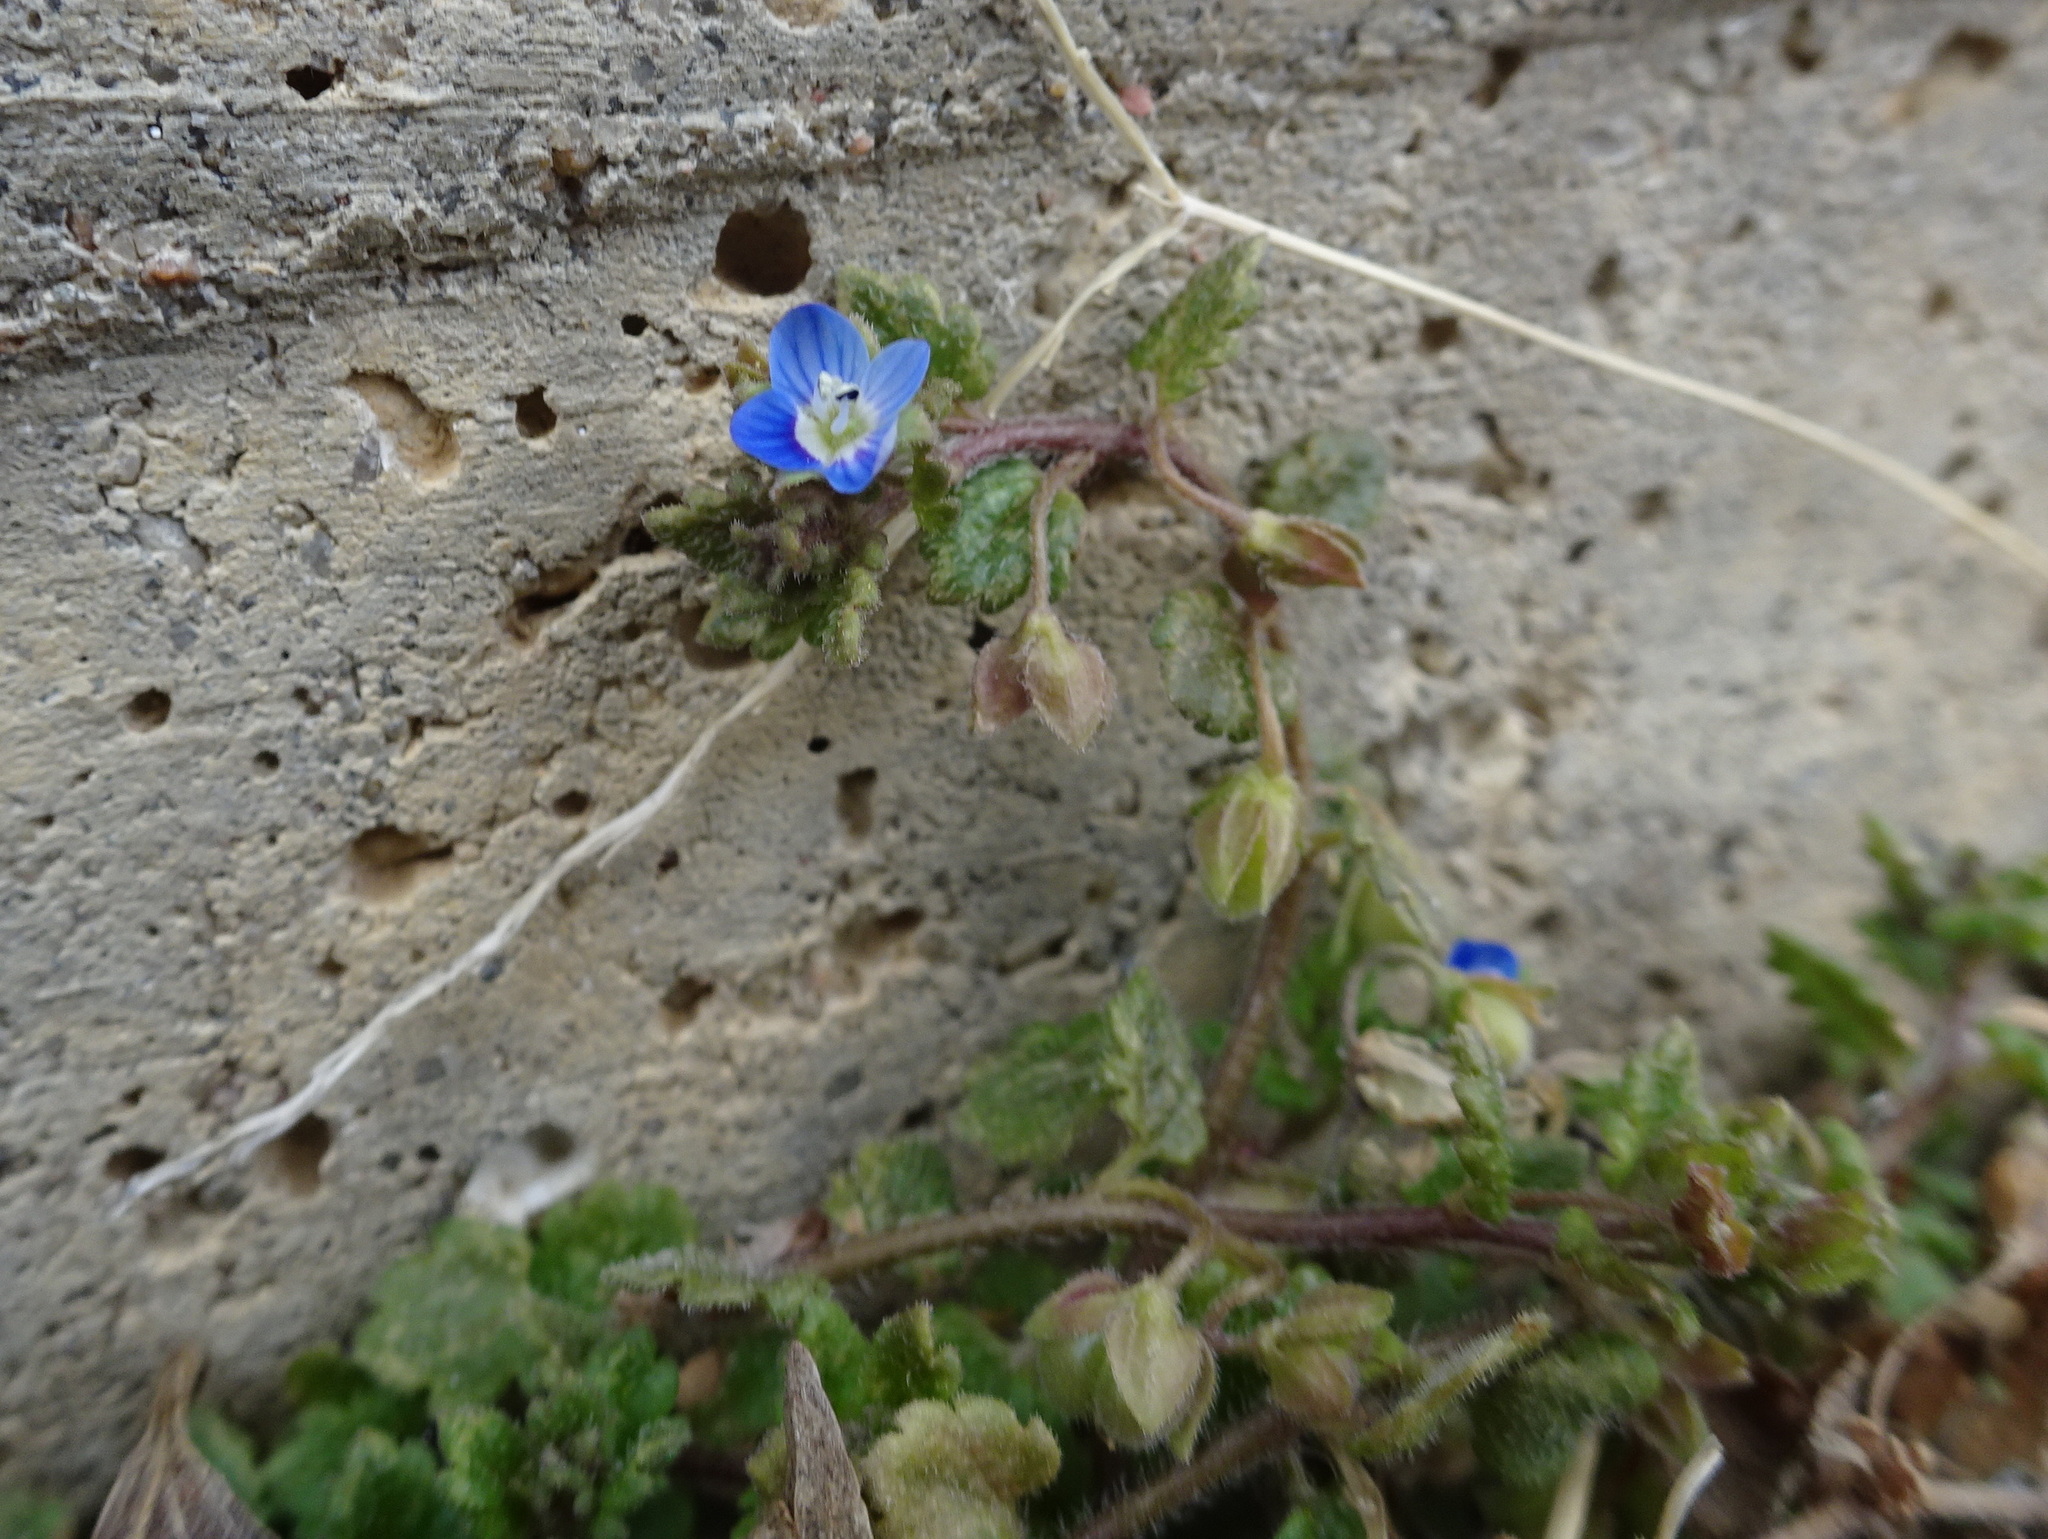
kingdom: Plantae
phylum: Tracheophyta
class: Magnoliopsida
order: Lamiales
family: Plantaginaceae
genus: Veronica
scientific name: Veronica polita
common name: Grey field-speedwell
